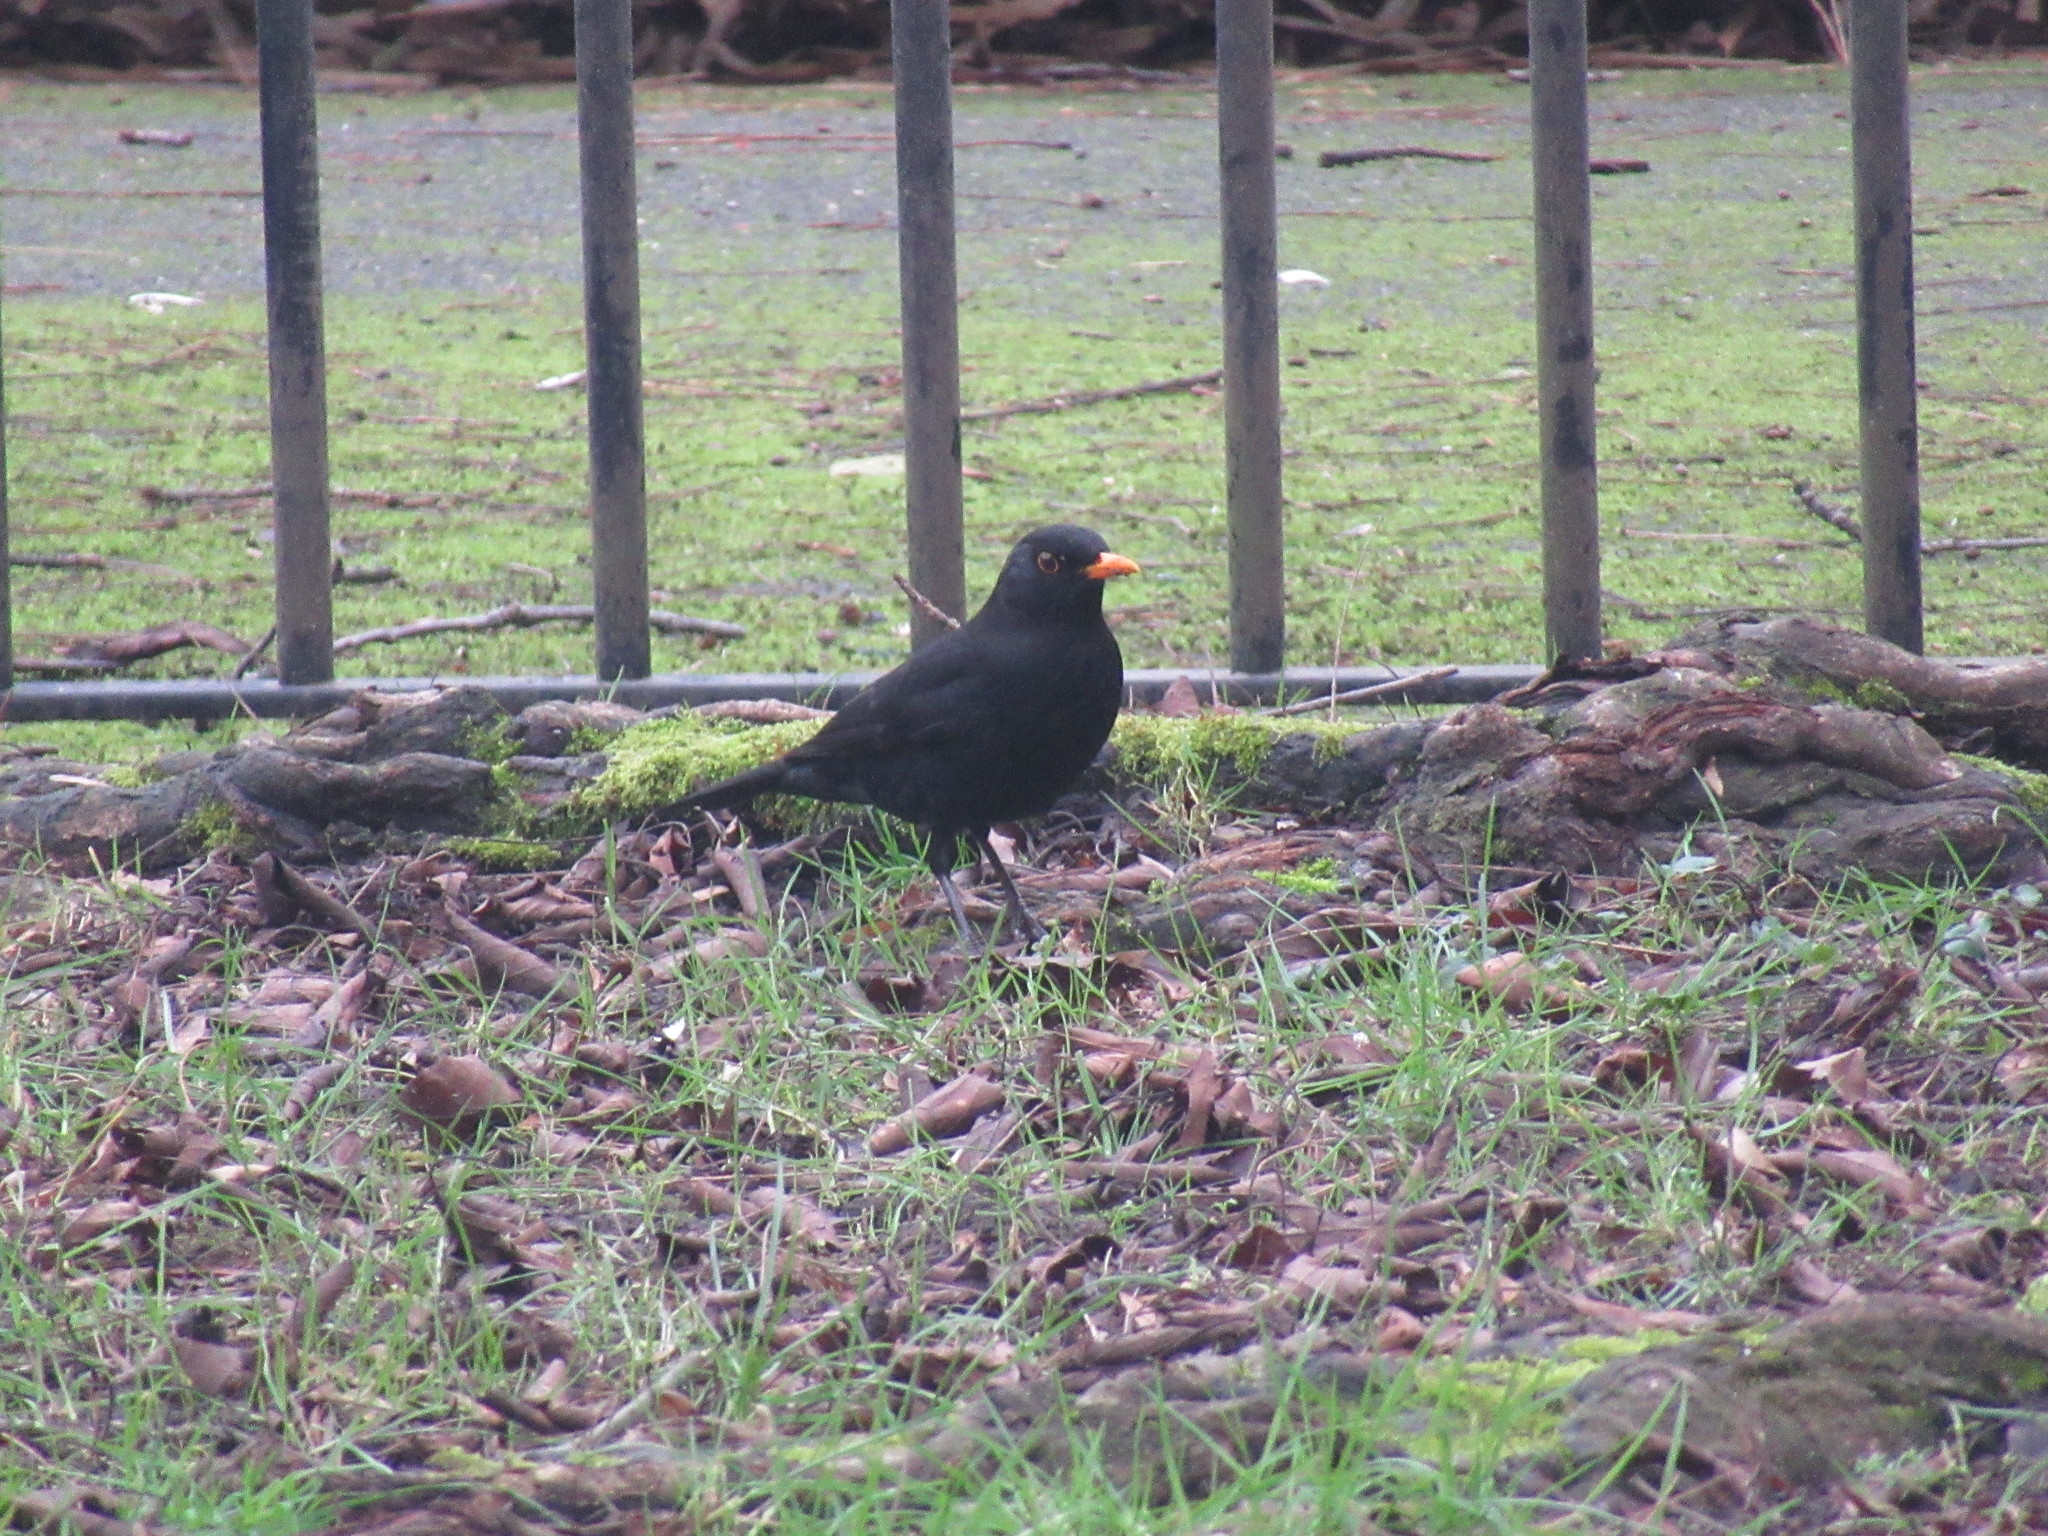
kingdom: Animalia
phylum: Chordata
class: Aves
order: Passeriformes
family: Turdidae
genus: Turdus
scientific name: Turdus merula
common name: Common blackbird
